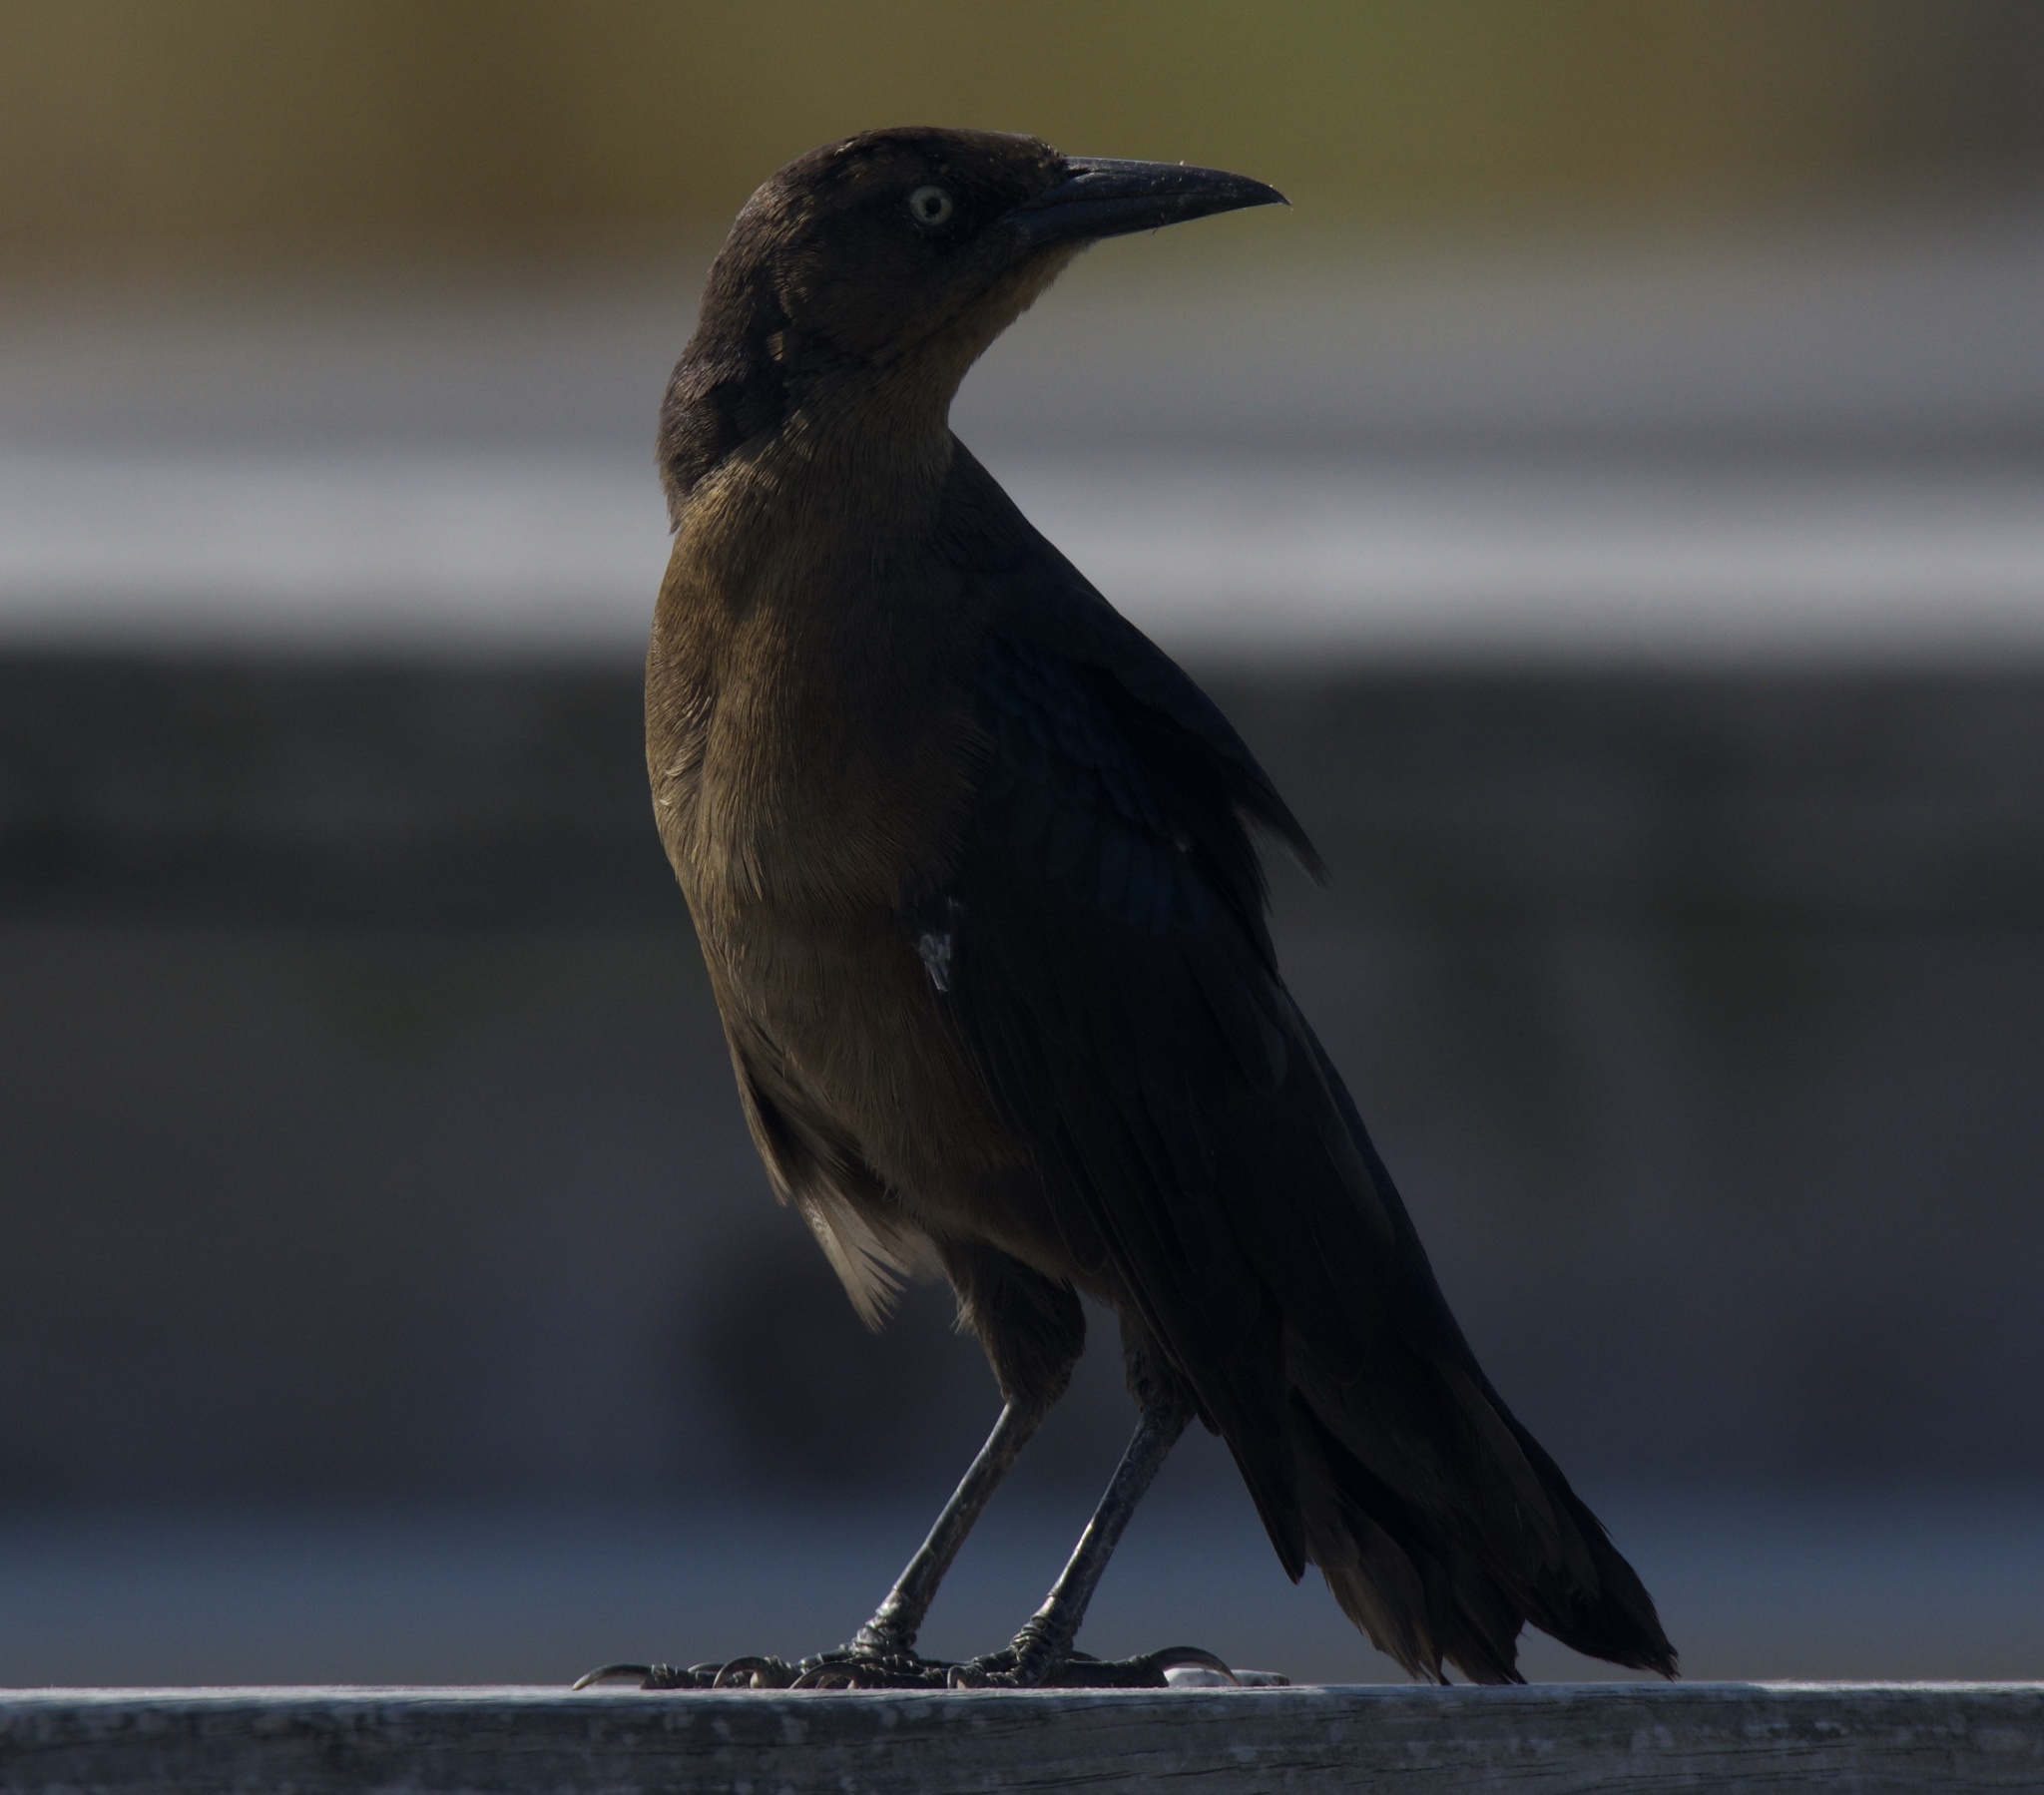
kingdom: Animalia
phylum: Chordata
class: Aves
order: Passeriformes
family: Icteridae
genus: Quiscalus
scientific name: Quiscalus mexicanus
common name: Great-tailed grackle
